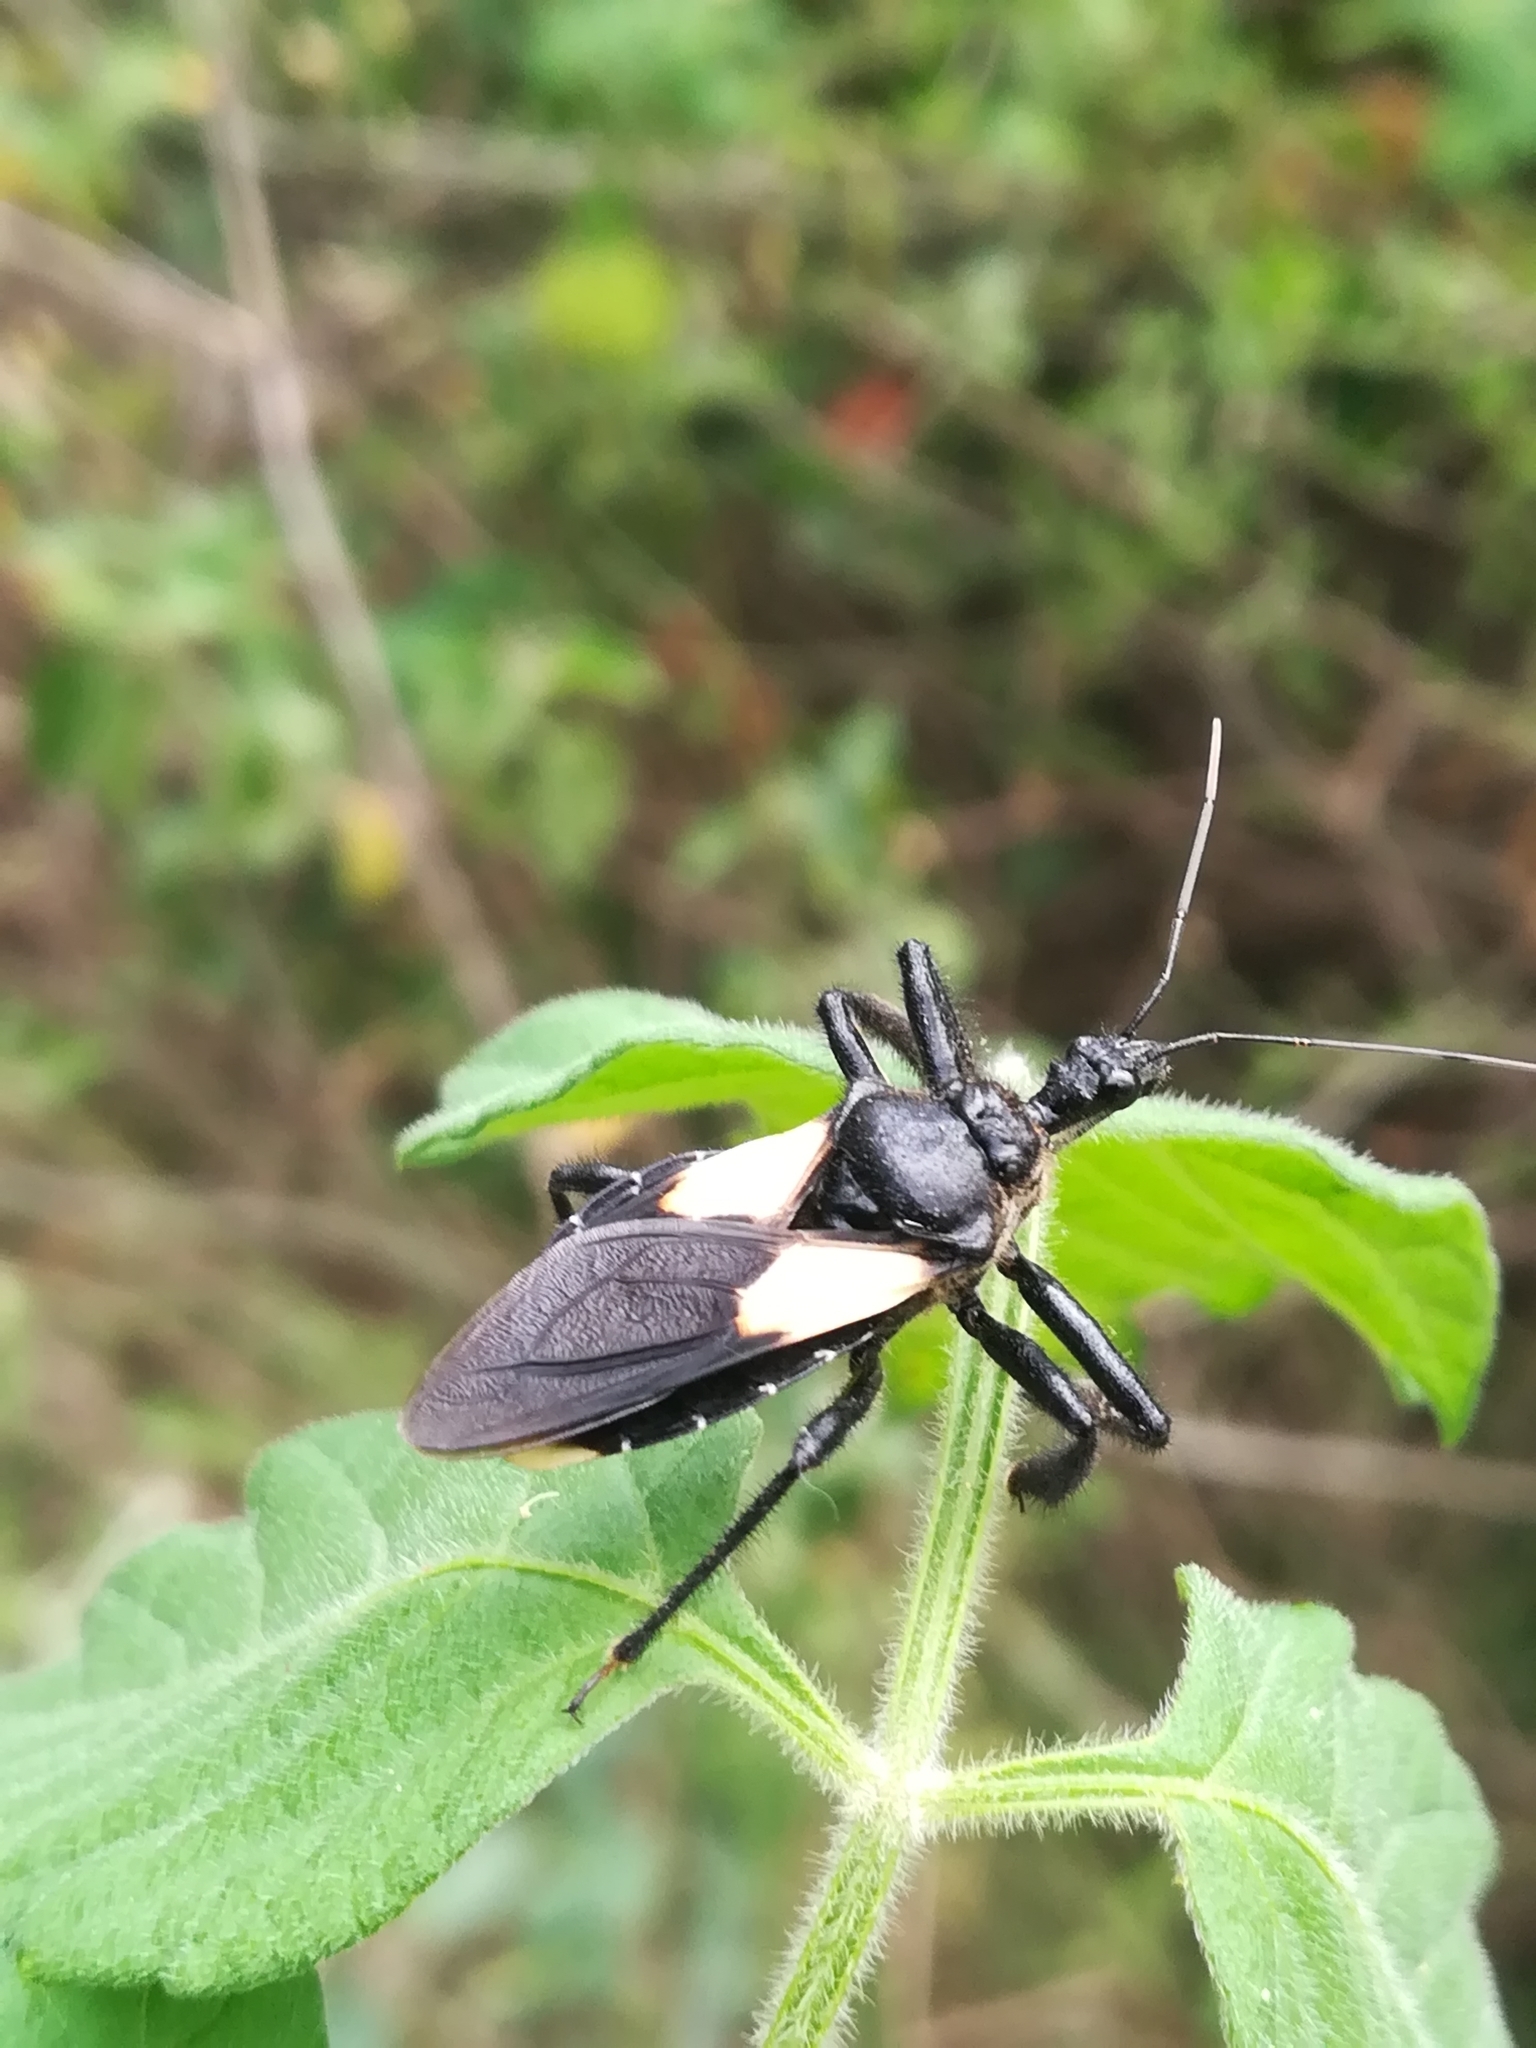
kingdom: Animalia
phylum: Arthropoda
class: Insecta
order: Hemiptera
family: Reduviidae
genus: Apiomerus
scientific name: Apiomerus elatus
